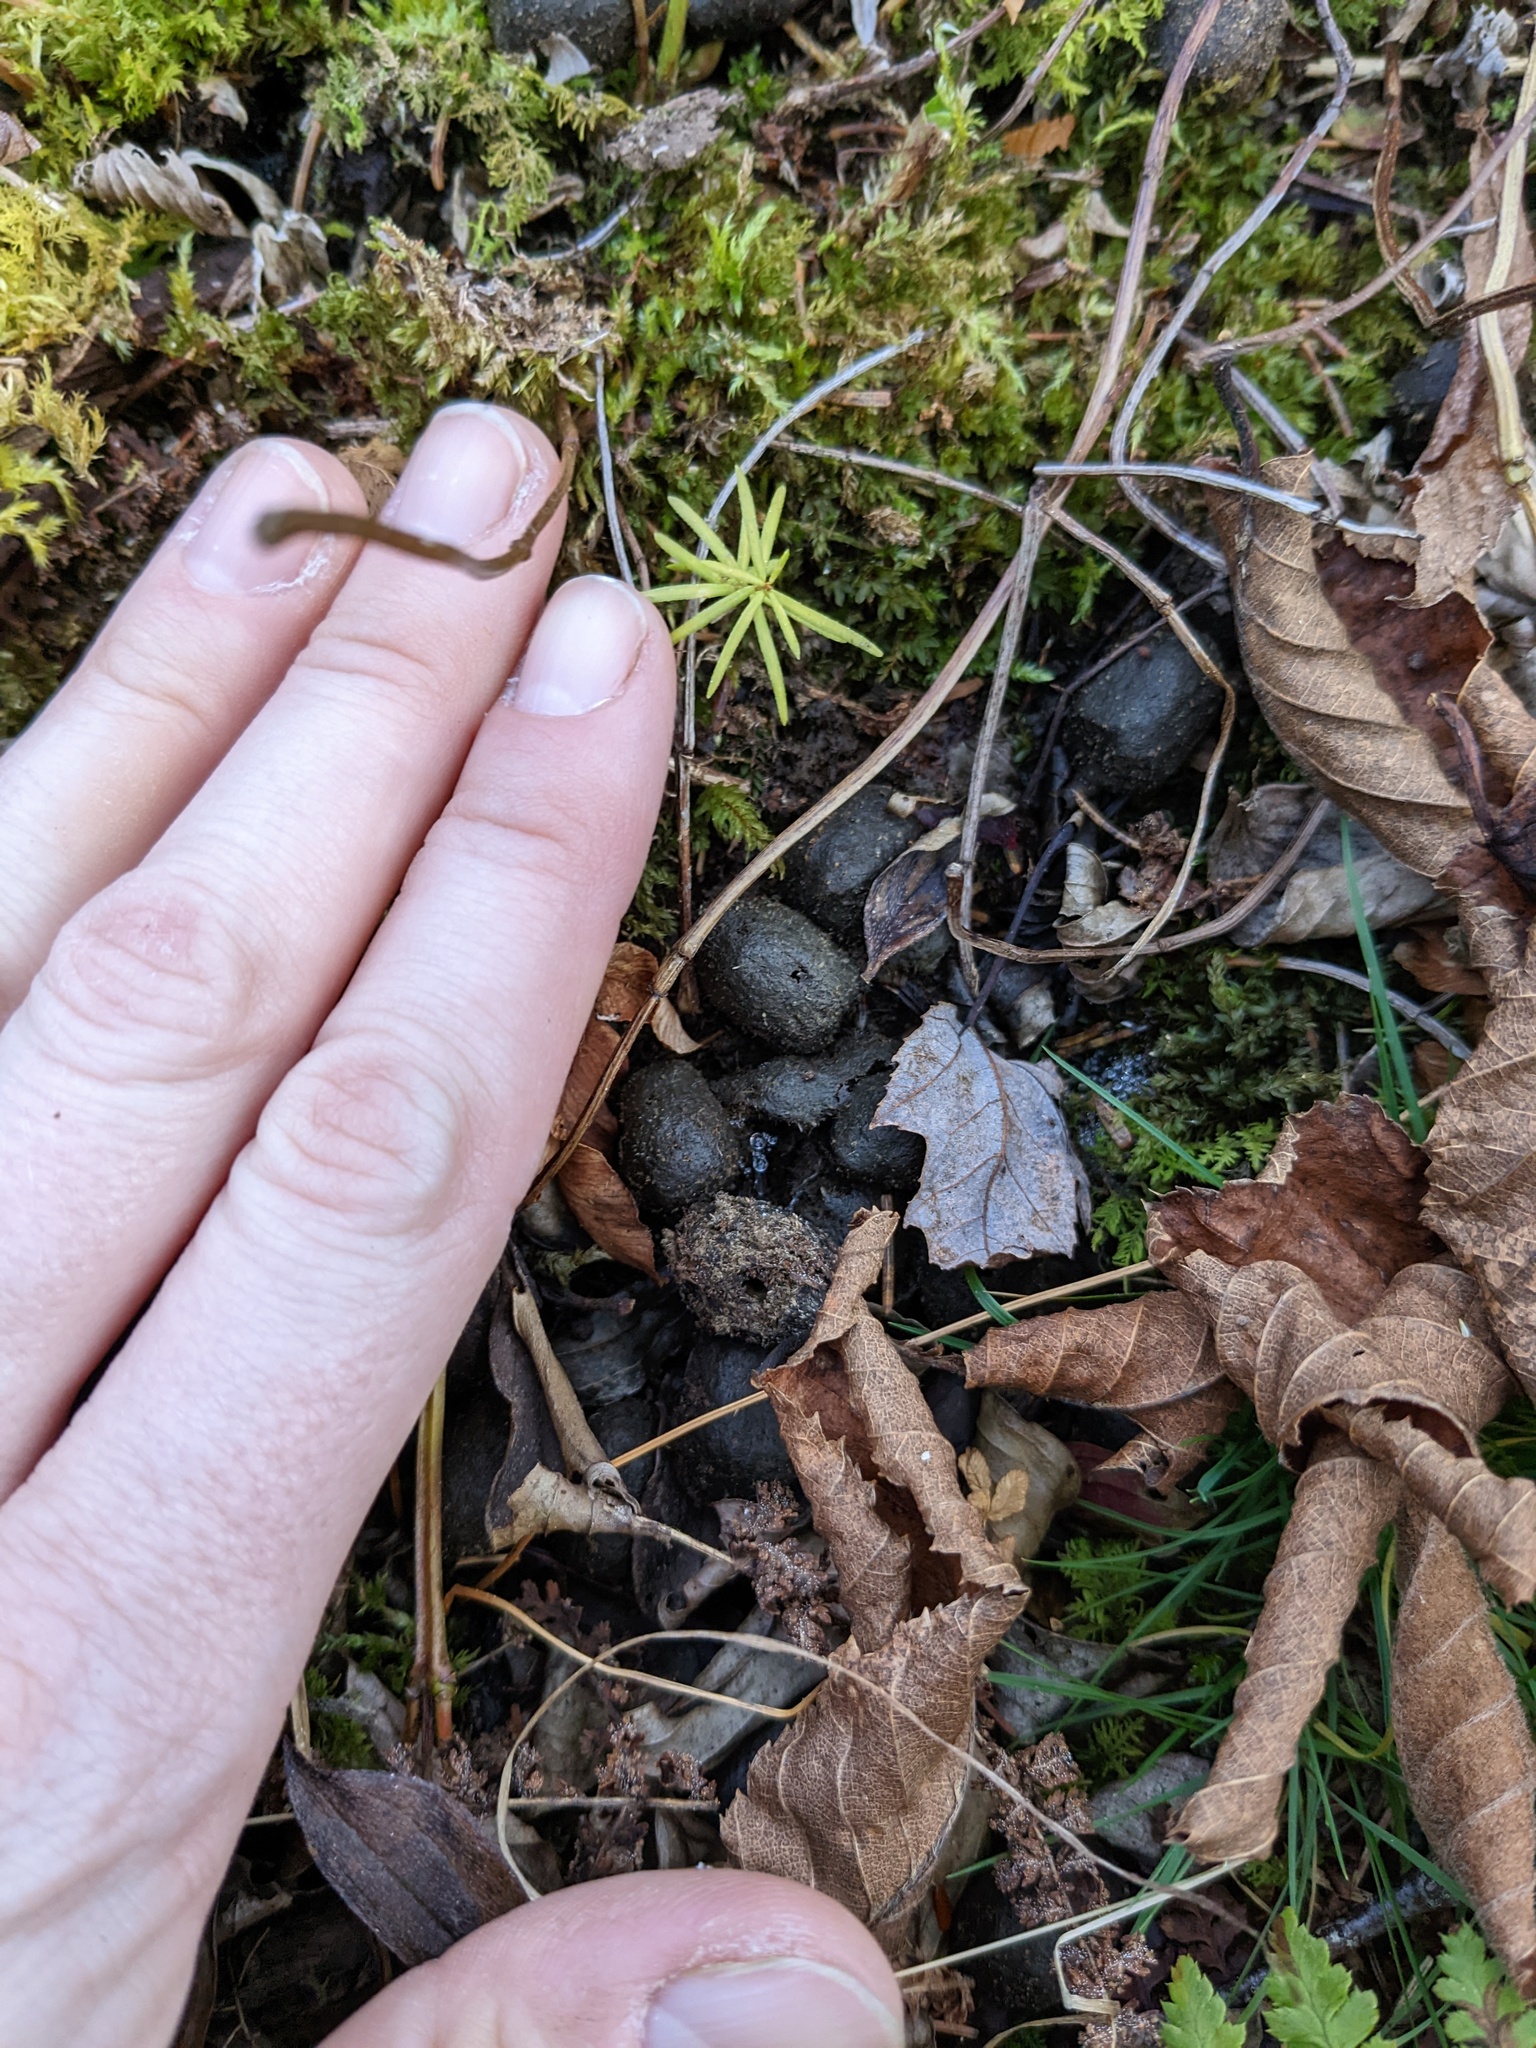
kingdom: Animalia
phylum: Chordata
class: Mammalia
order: Artiodactyla
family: Cervidae
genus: Alces
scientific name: Alces alces
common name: Moose
